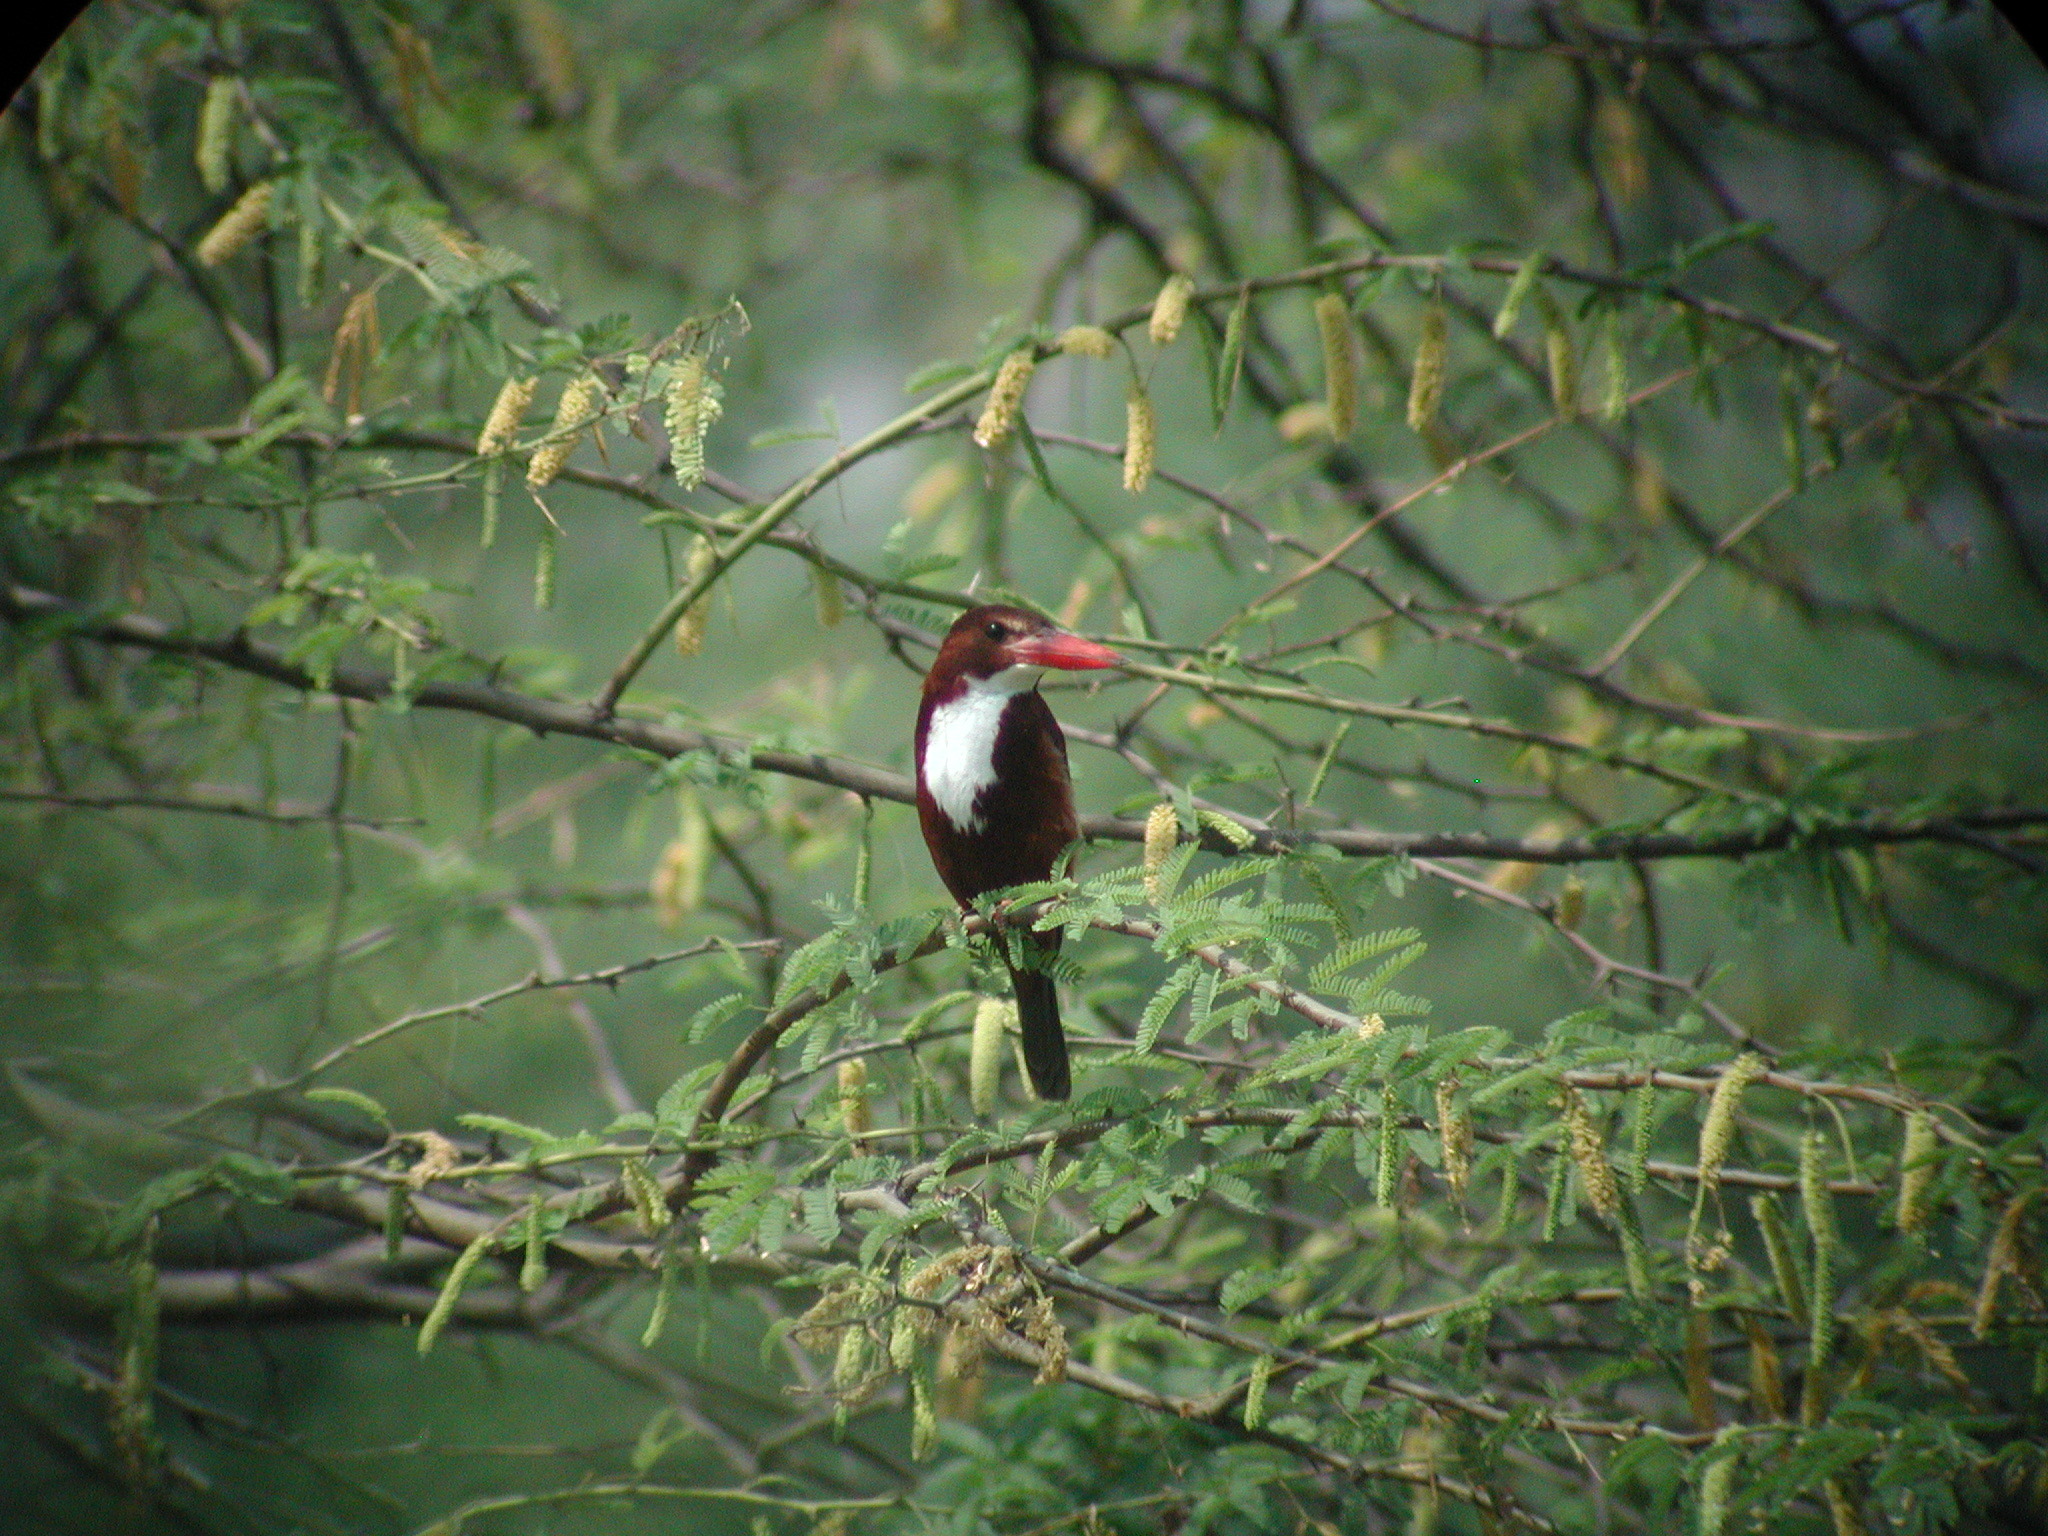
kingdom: Animalia
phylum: Chordata
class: Aves
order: Coraciiformes
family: Alcedinidae
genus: Halcyon
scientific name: Halcyon smyrnensis
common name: White-throated kingfisher
